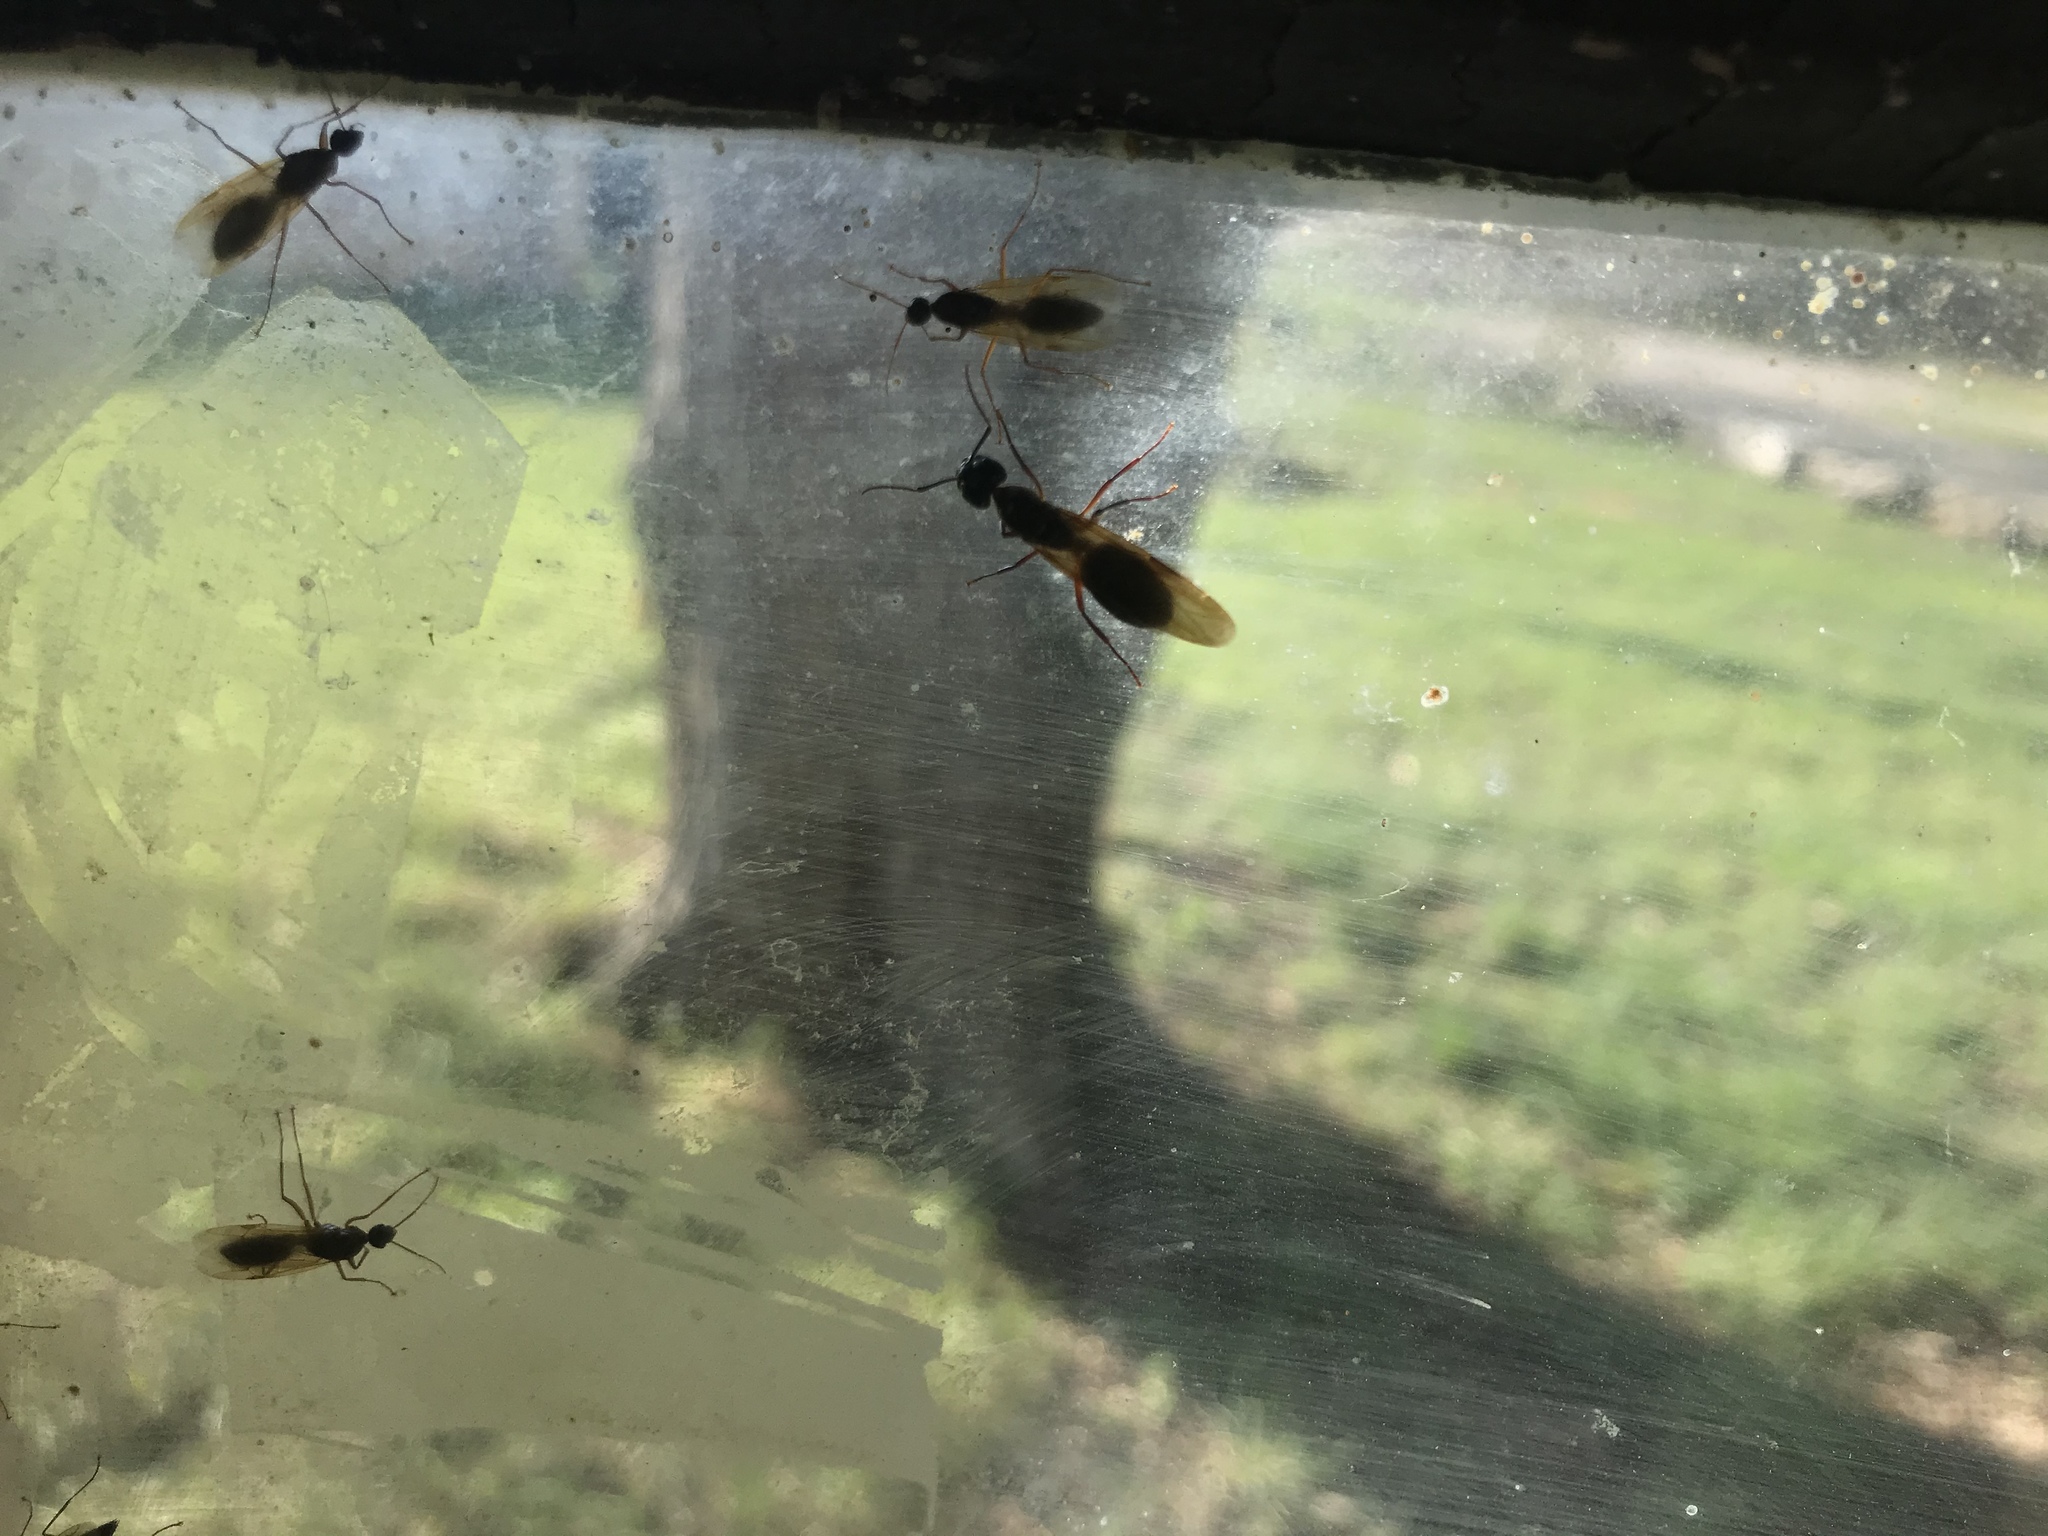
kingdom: Animalia
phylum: Arthropoda
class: Insecta
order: Hymenoptera
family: Formicidae
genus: Camponotus
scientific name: Camponotus texanus
